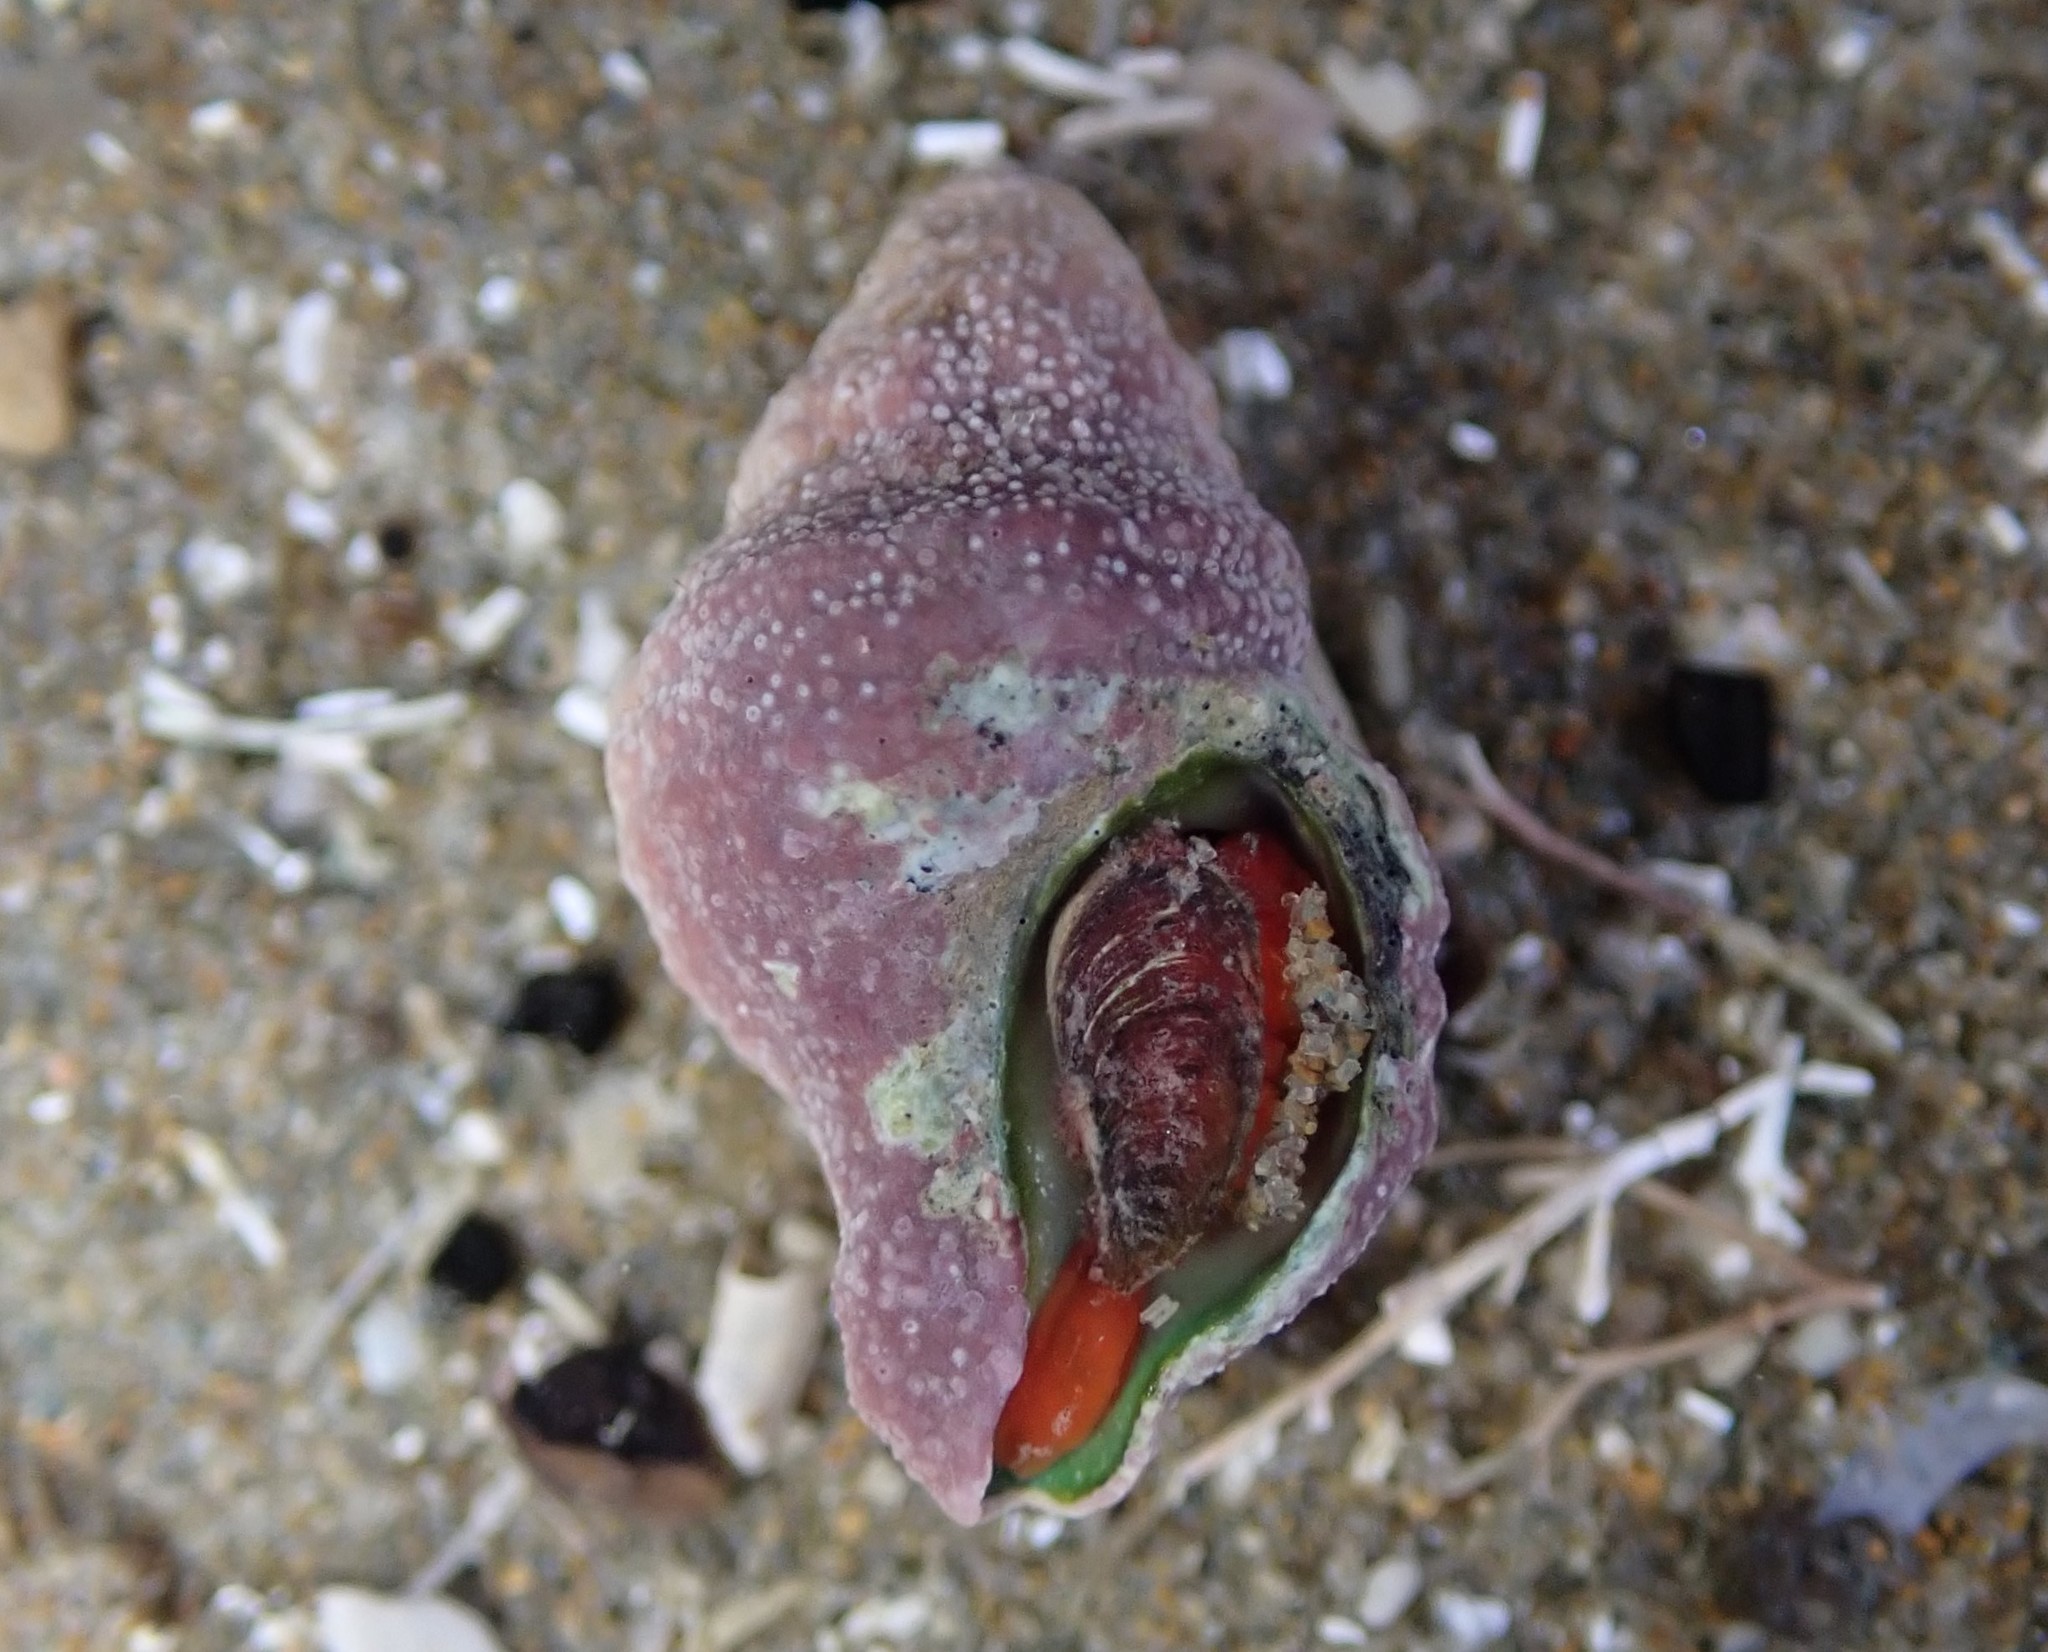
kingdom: Animalia
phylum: Mollusca
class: Gastropoda
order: Neogastropoda
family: Fasciolariidae
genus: Taron
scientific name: Taron dubius
